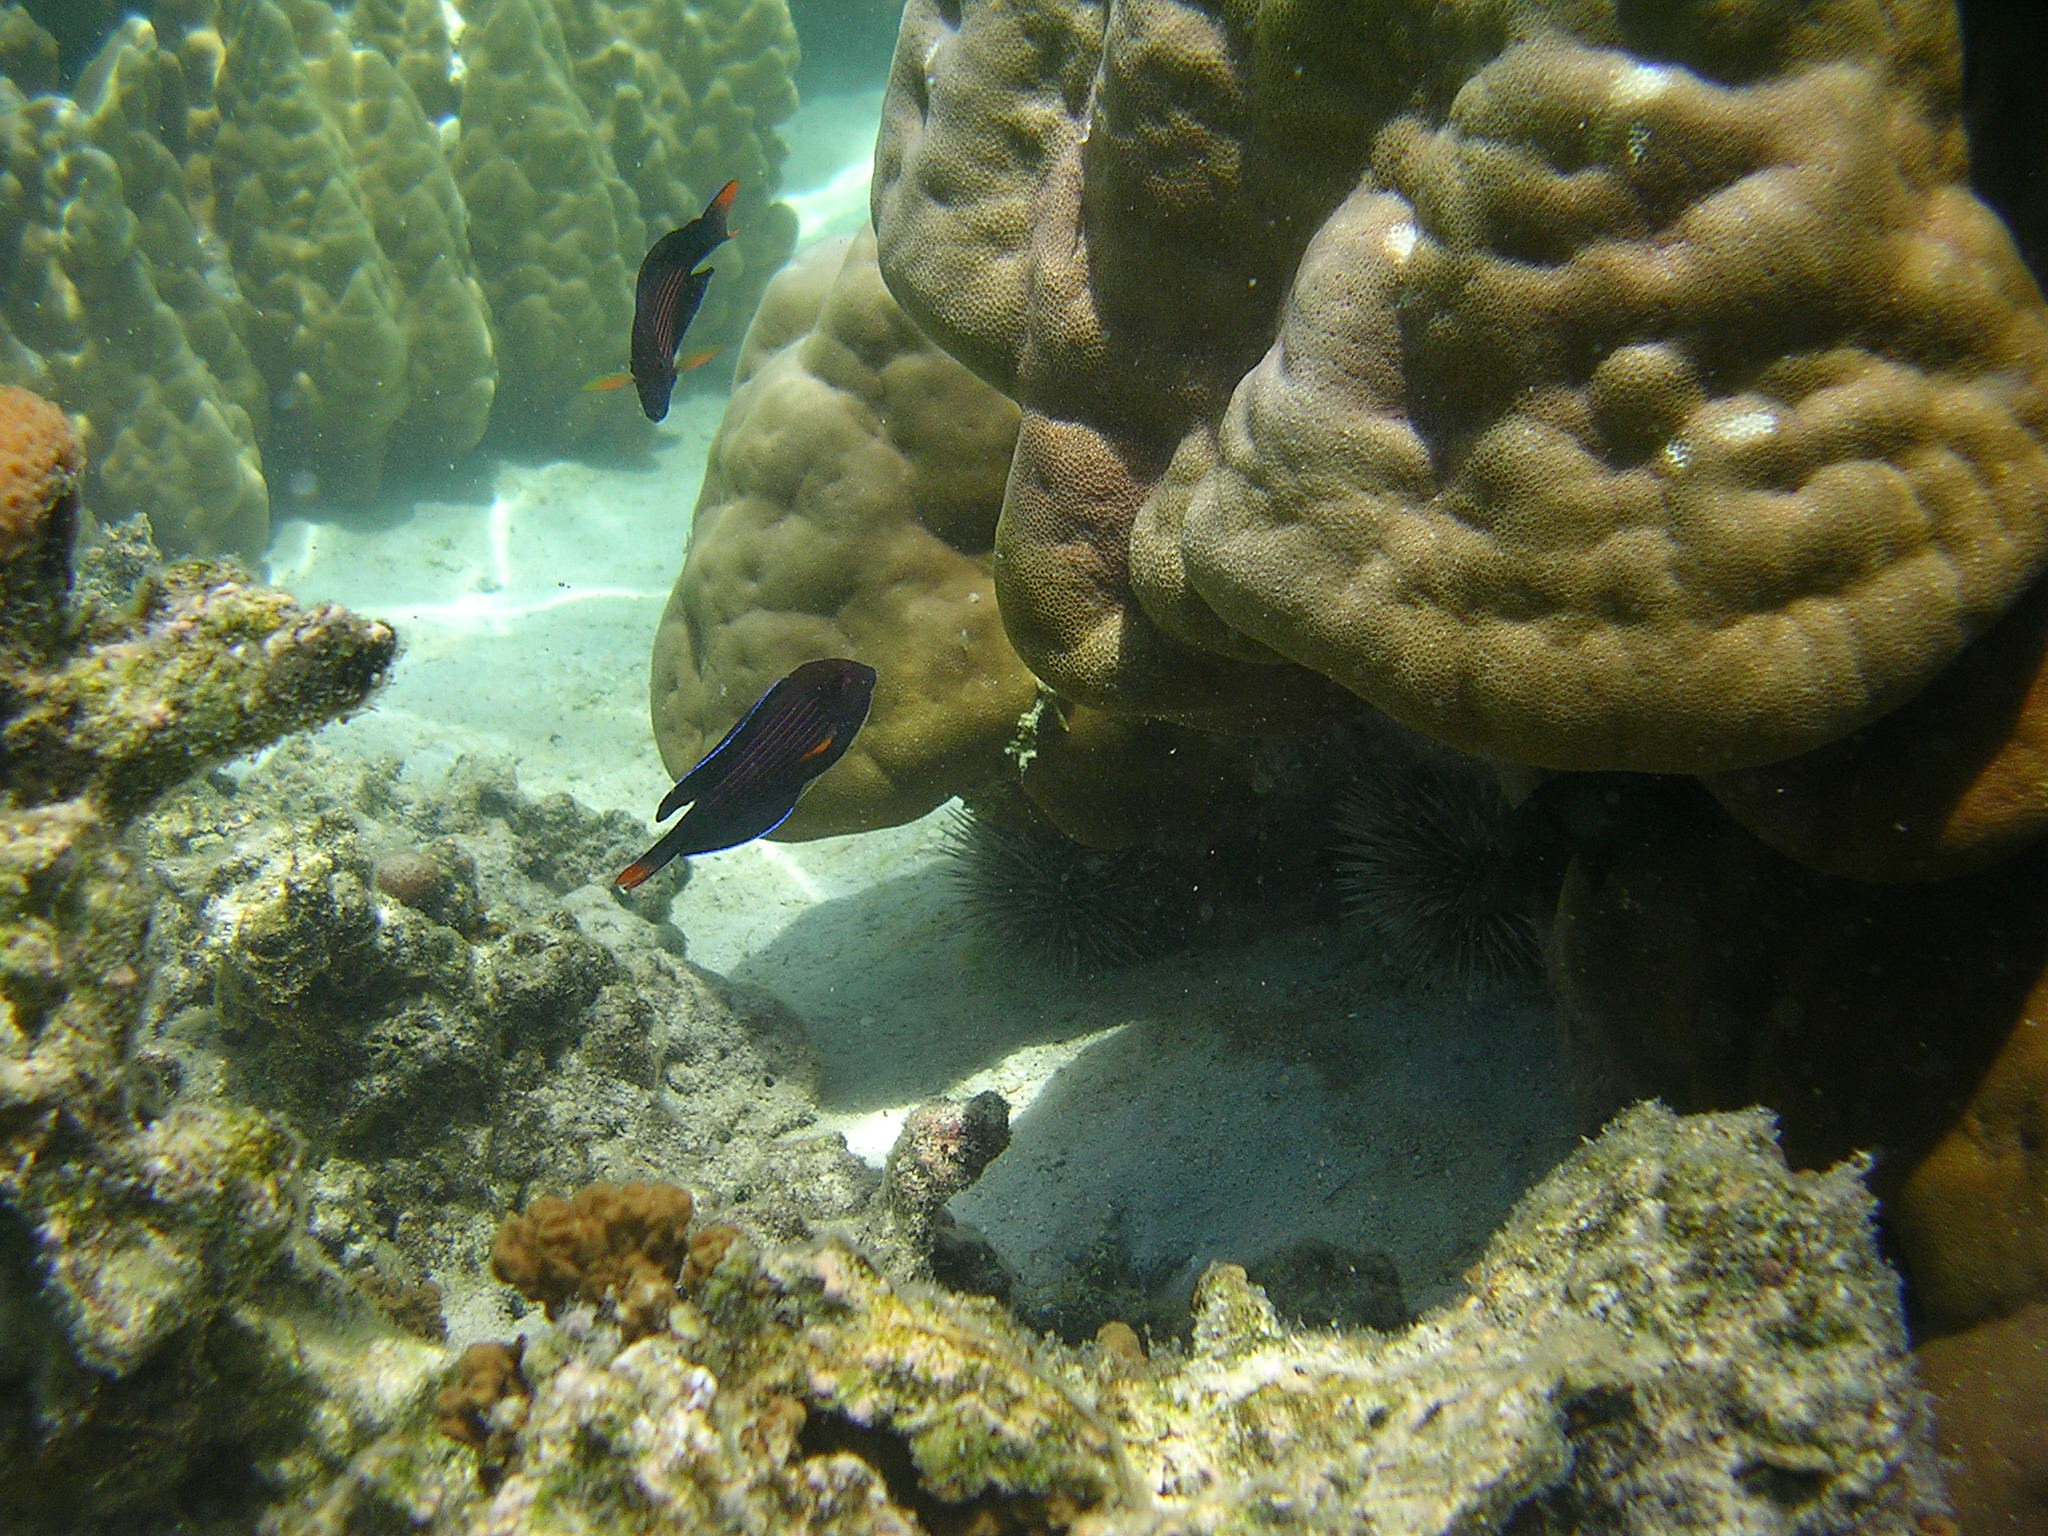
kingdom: Animalia
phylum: Chordata
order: Perciformes
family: Acanthuridae
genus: Ctenochaetus
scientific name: Ctenochaetus striatus
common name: Bristle-toothed surgeonfish
